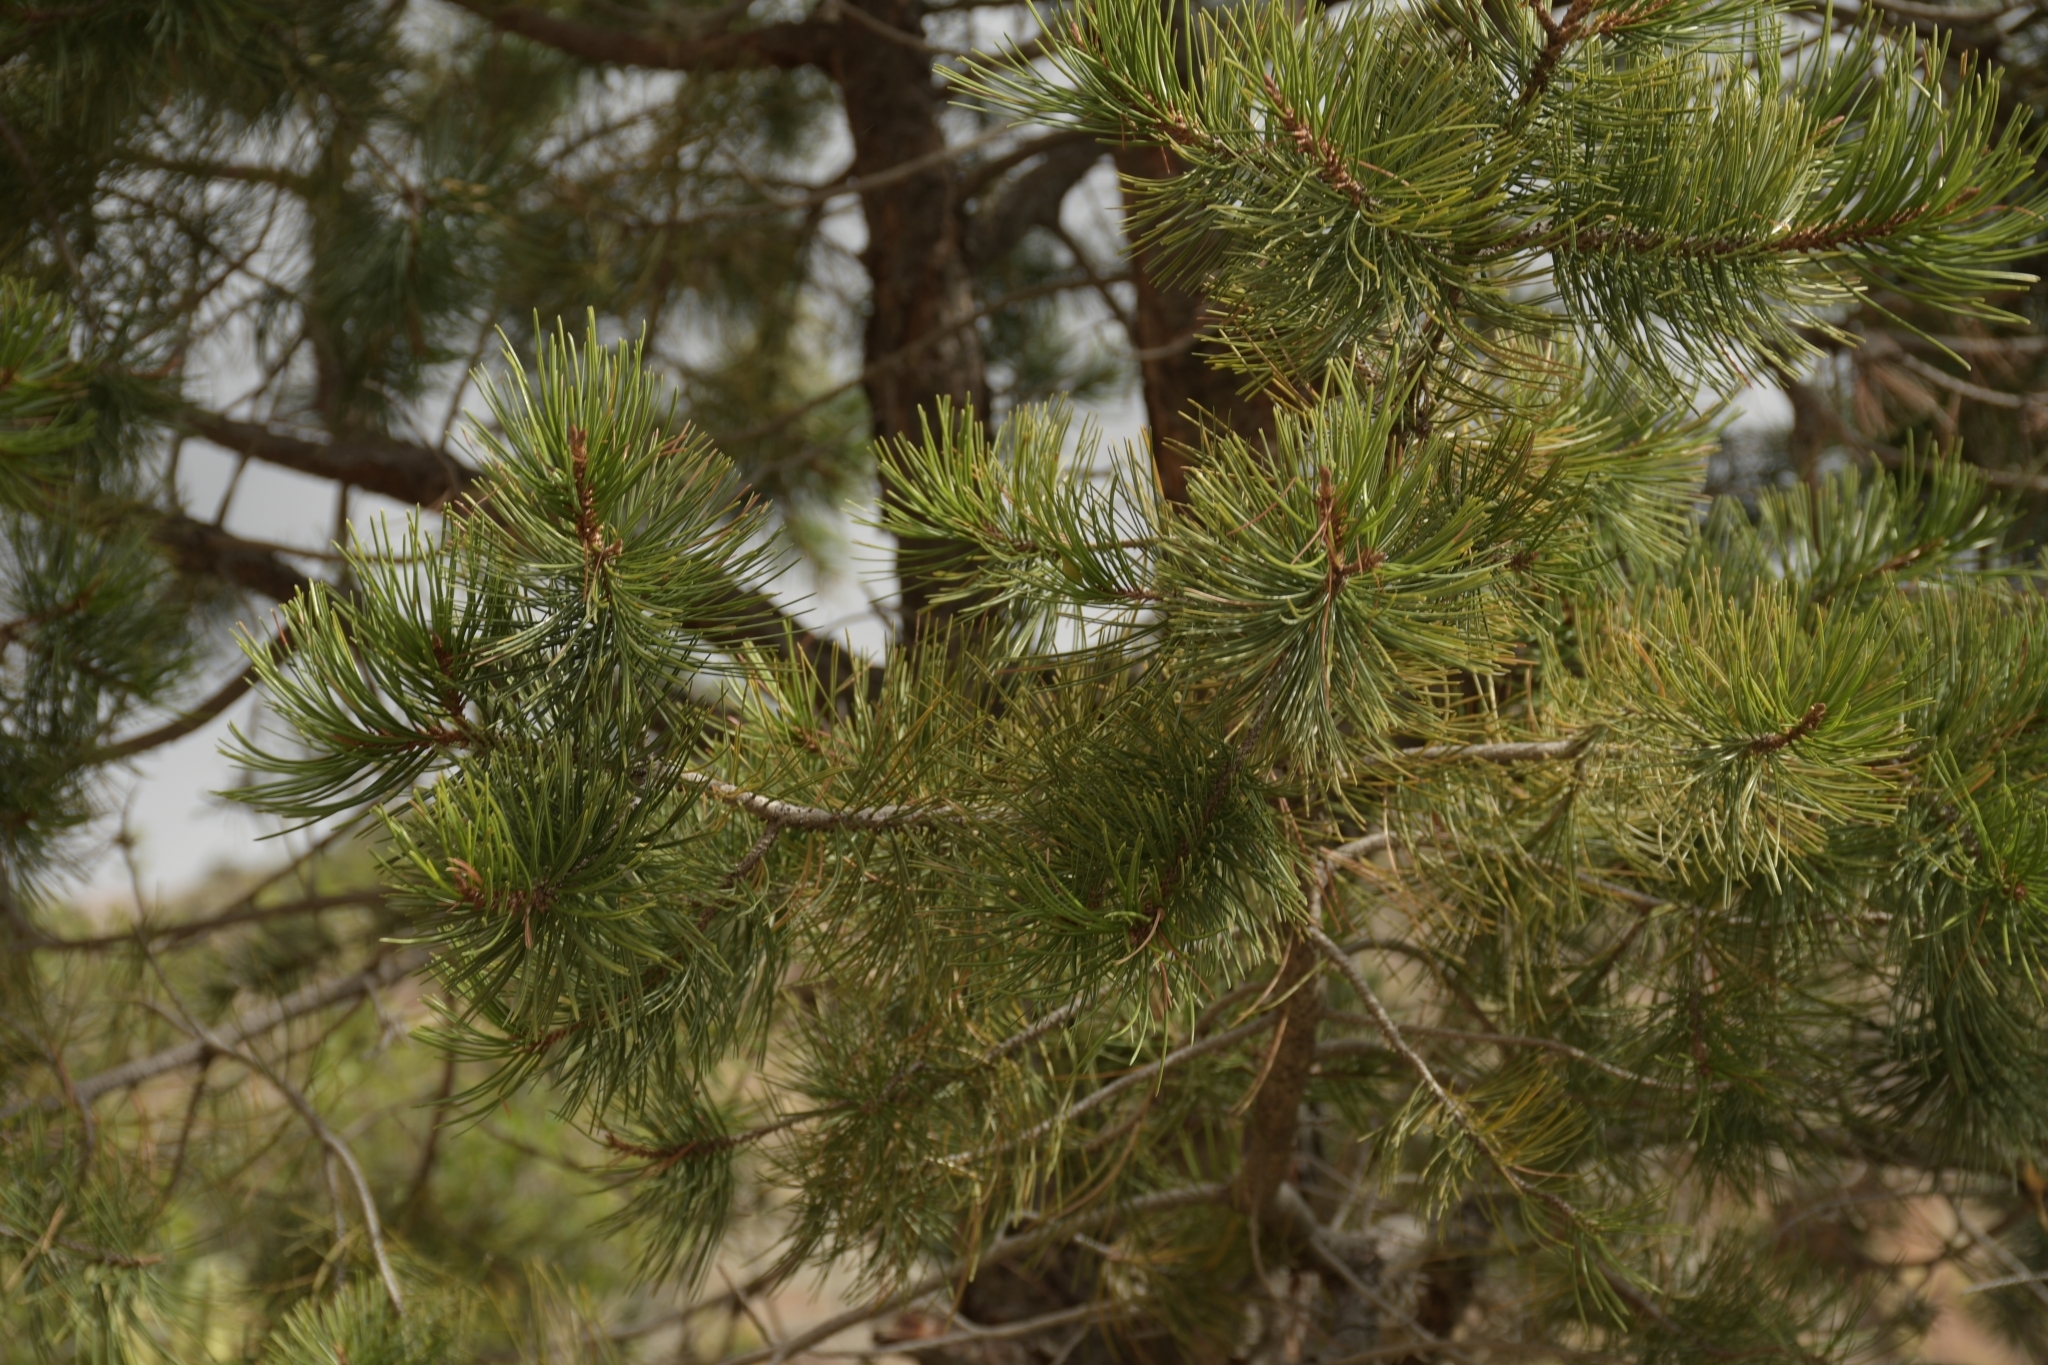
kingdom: Plantae
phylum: Tracheophyta
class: Pinopsida
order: Pinales
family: Pinaceae
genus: Pinus
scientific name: Pinus cembroides
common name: Mexican nut pine
